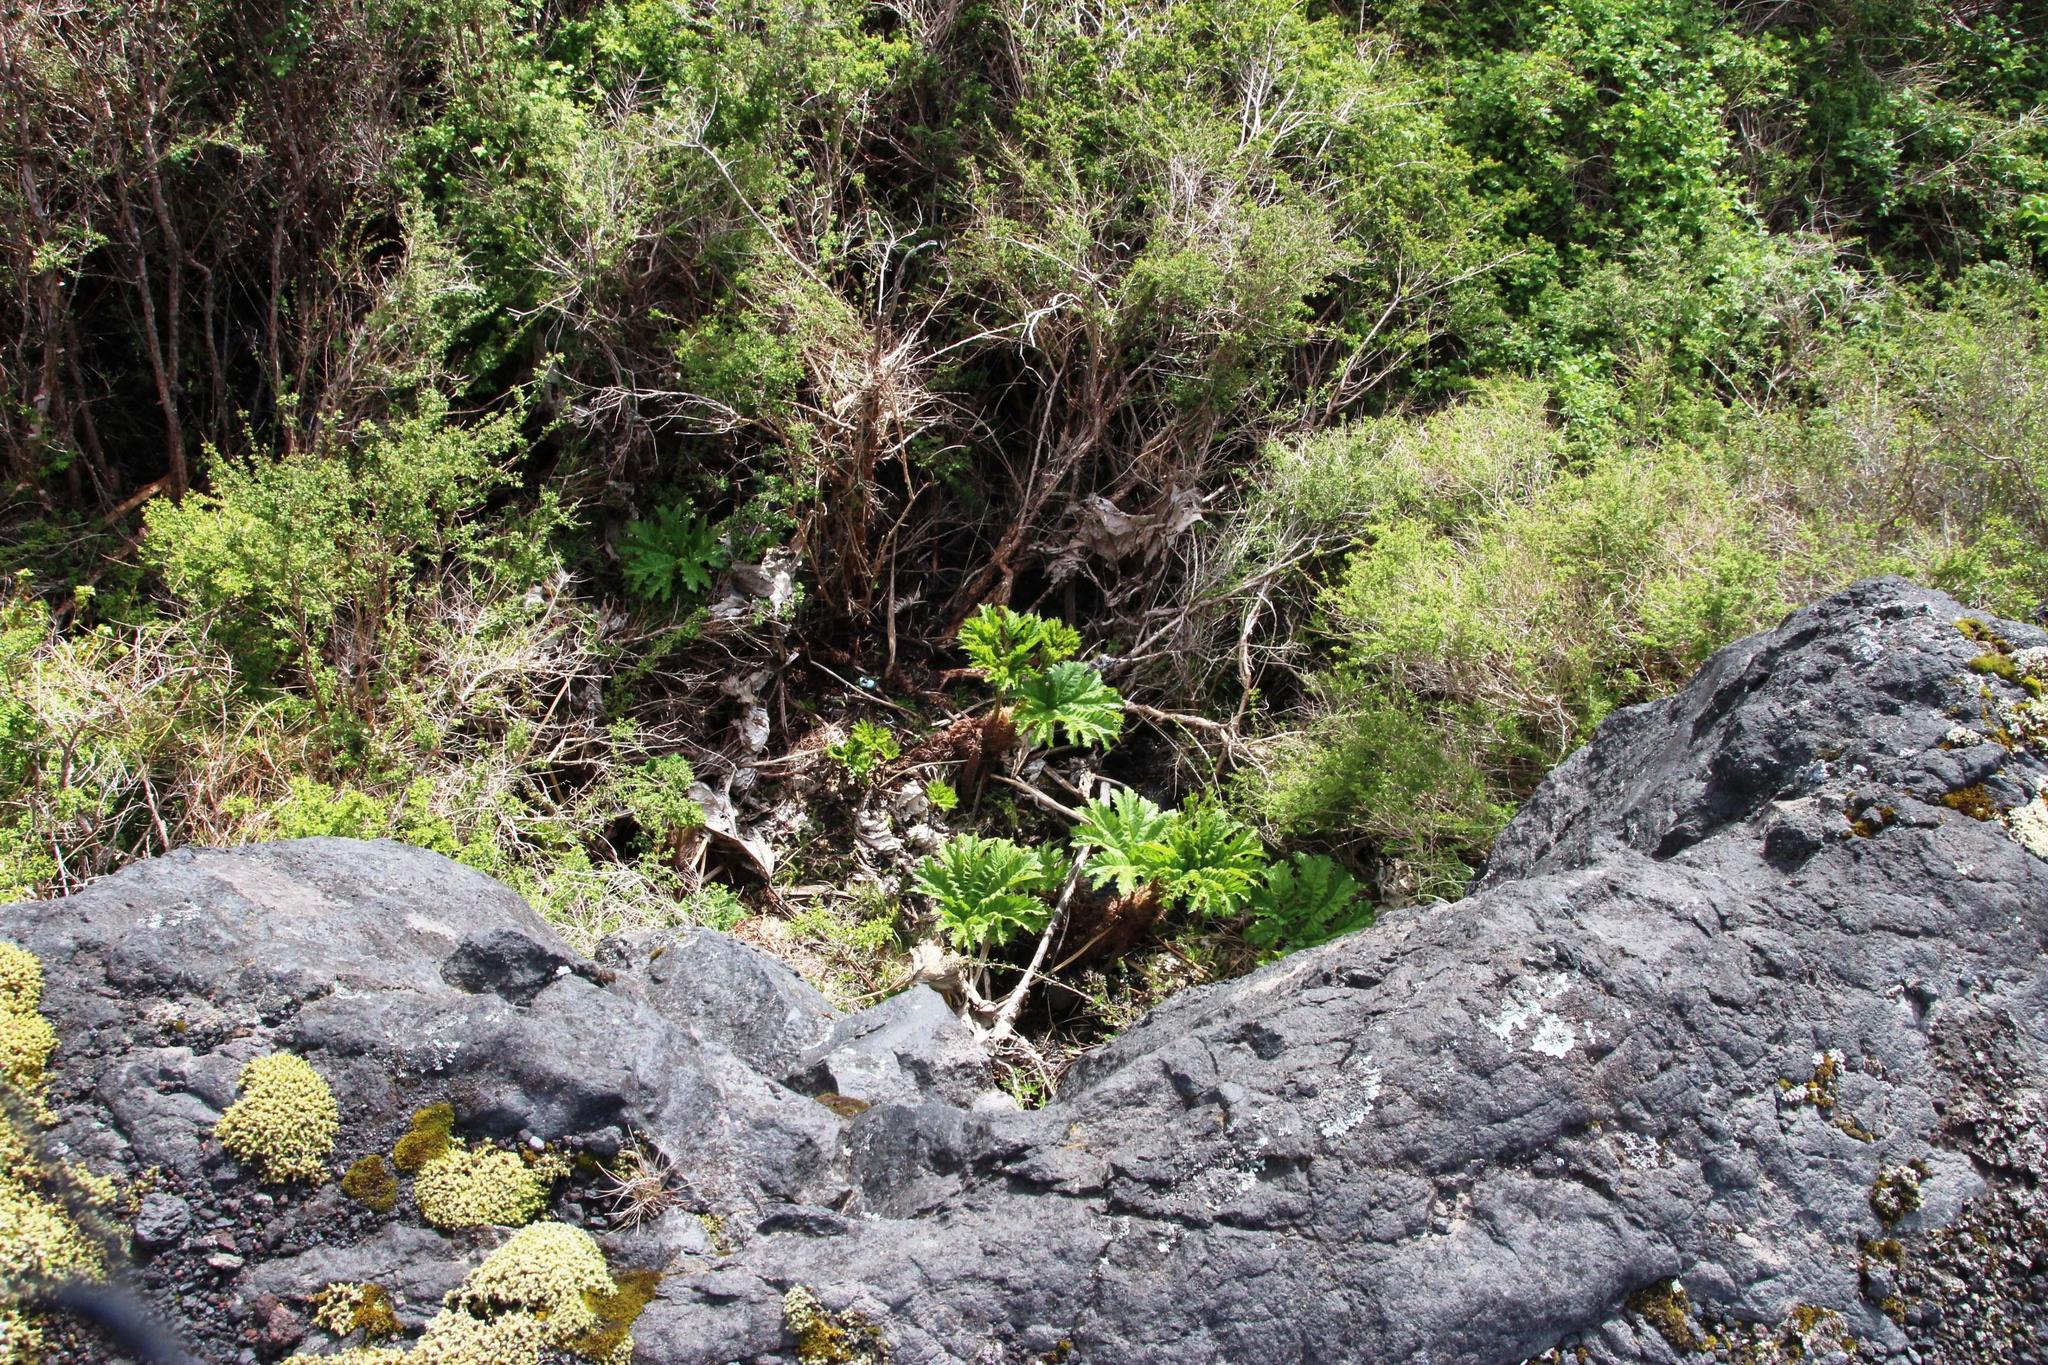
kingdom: Plantae
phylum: Tracheophyta
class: Magnoliopsida
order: Gunnerales
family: Gunneraceae
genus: Gunnera
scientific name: Gunnera tinctoria
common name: Giant-rhubarb
